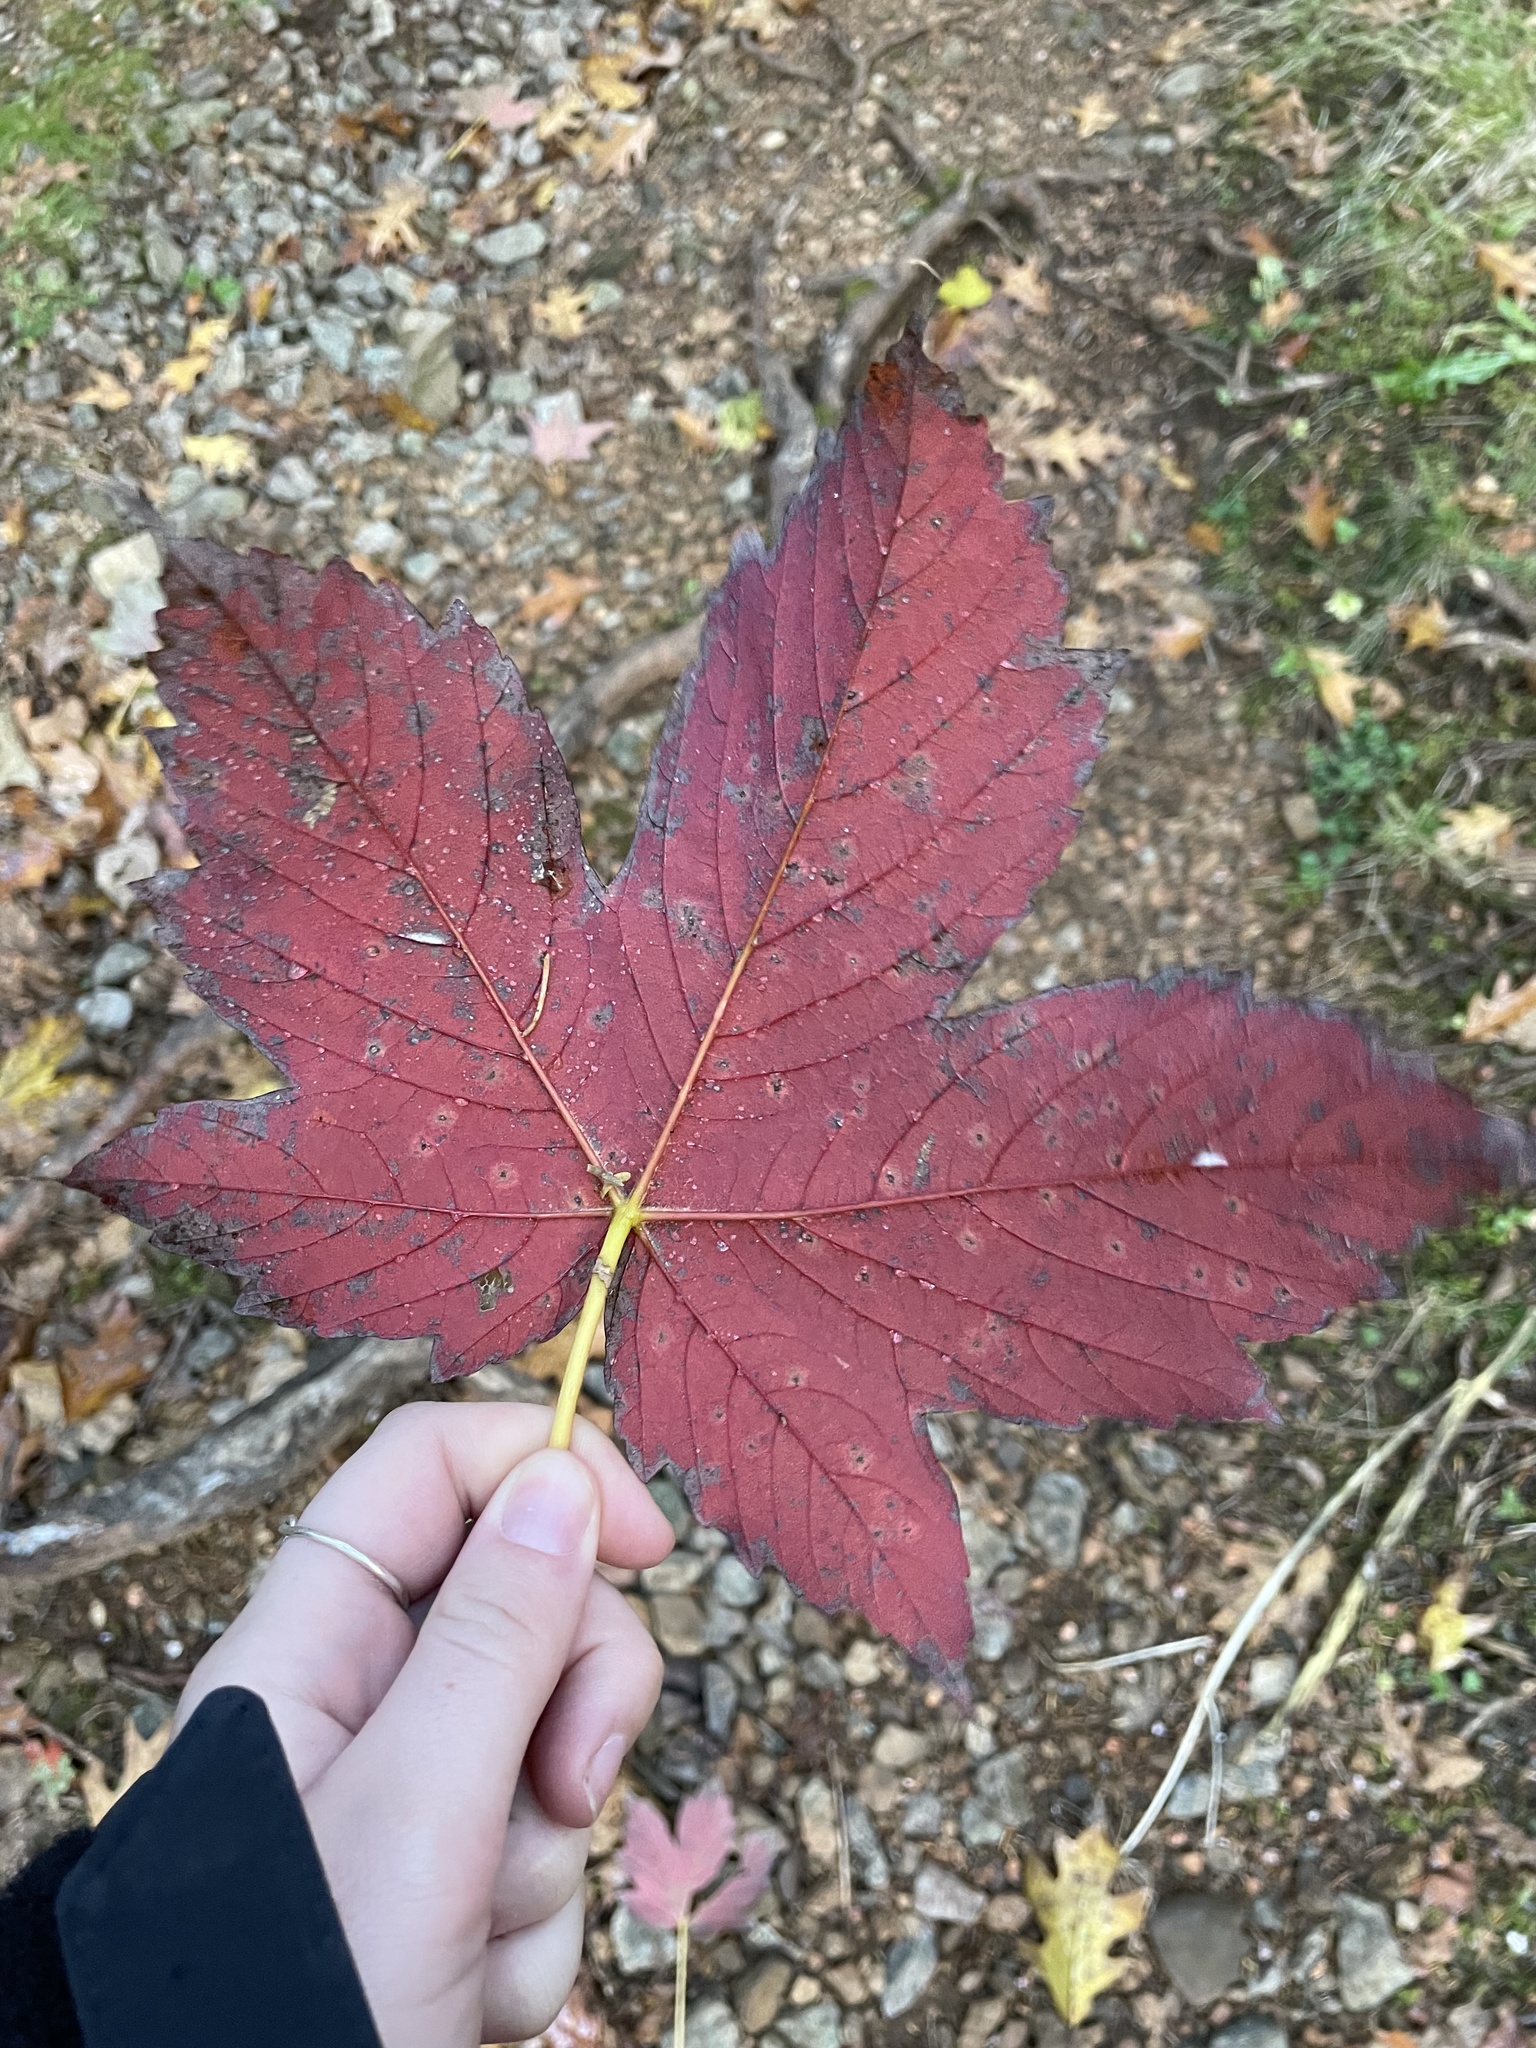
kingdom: Plantae
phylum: Tracheophyta
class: Magnoliopsida
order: Sapindales
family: Sapindaceae
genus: Acer
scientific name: Acer pseudoplatanus
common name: Sycamore
